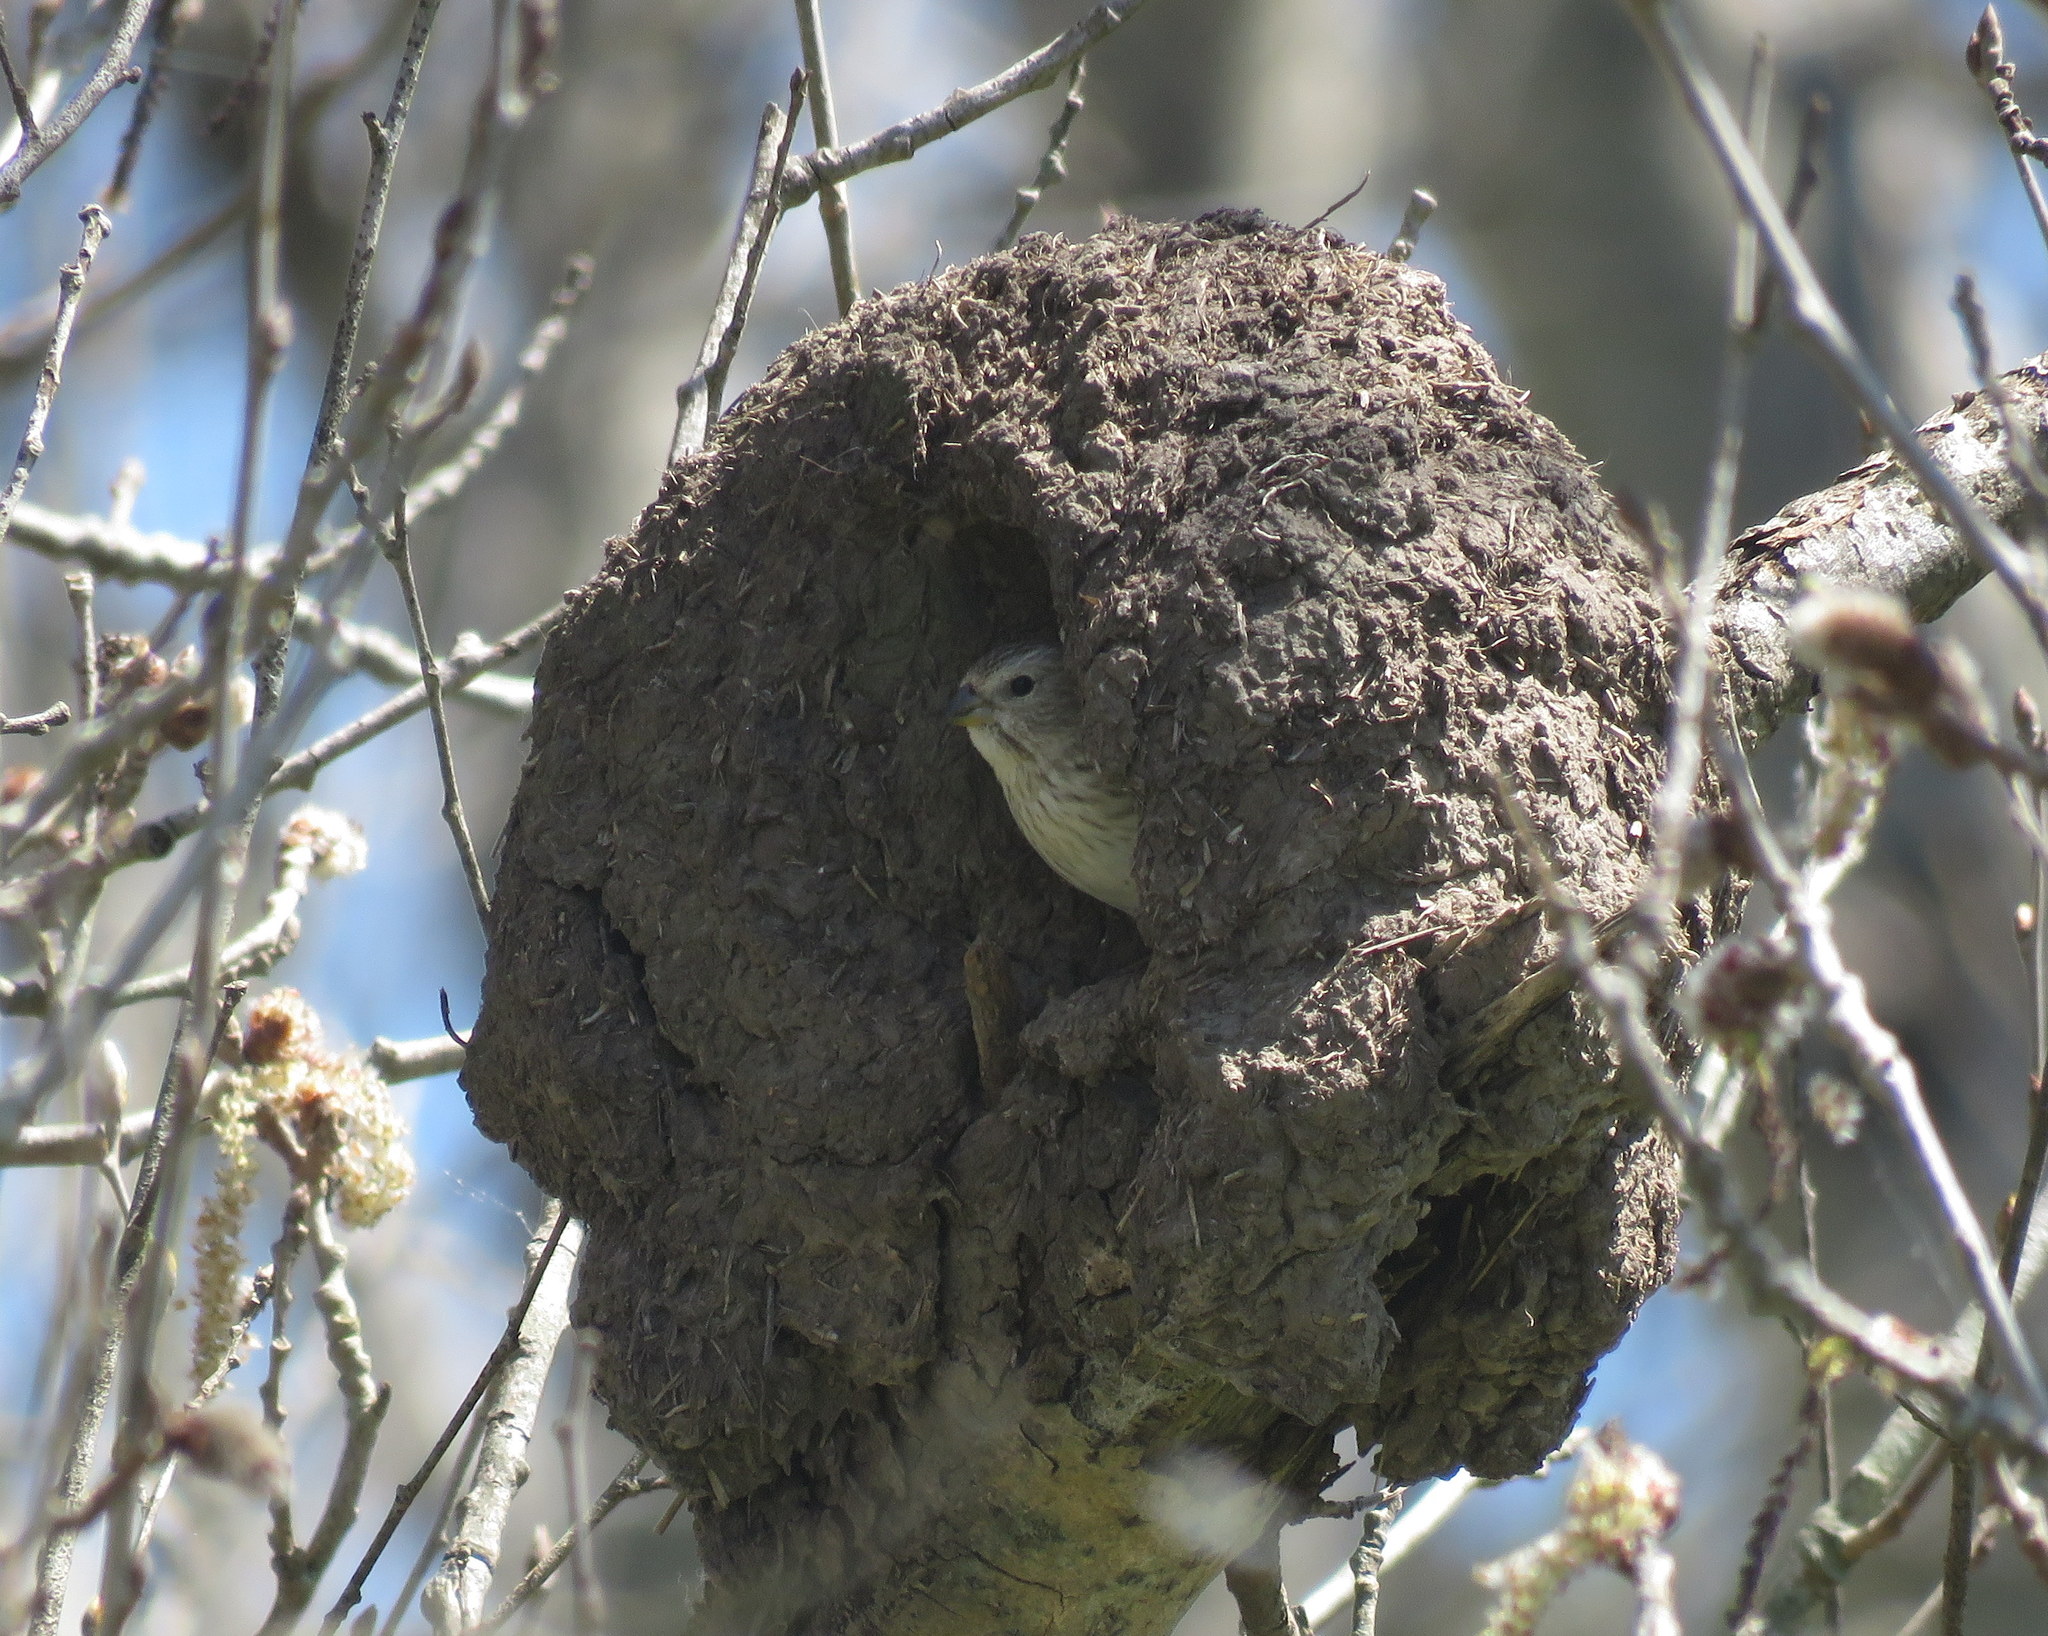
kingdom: Animalia
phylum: Chordata
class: Aves
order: Passeriformes
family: Thraupidae
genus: Sicalis
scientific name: Sicalis flaveola
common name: Saffron finch
